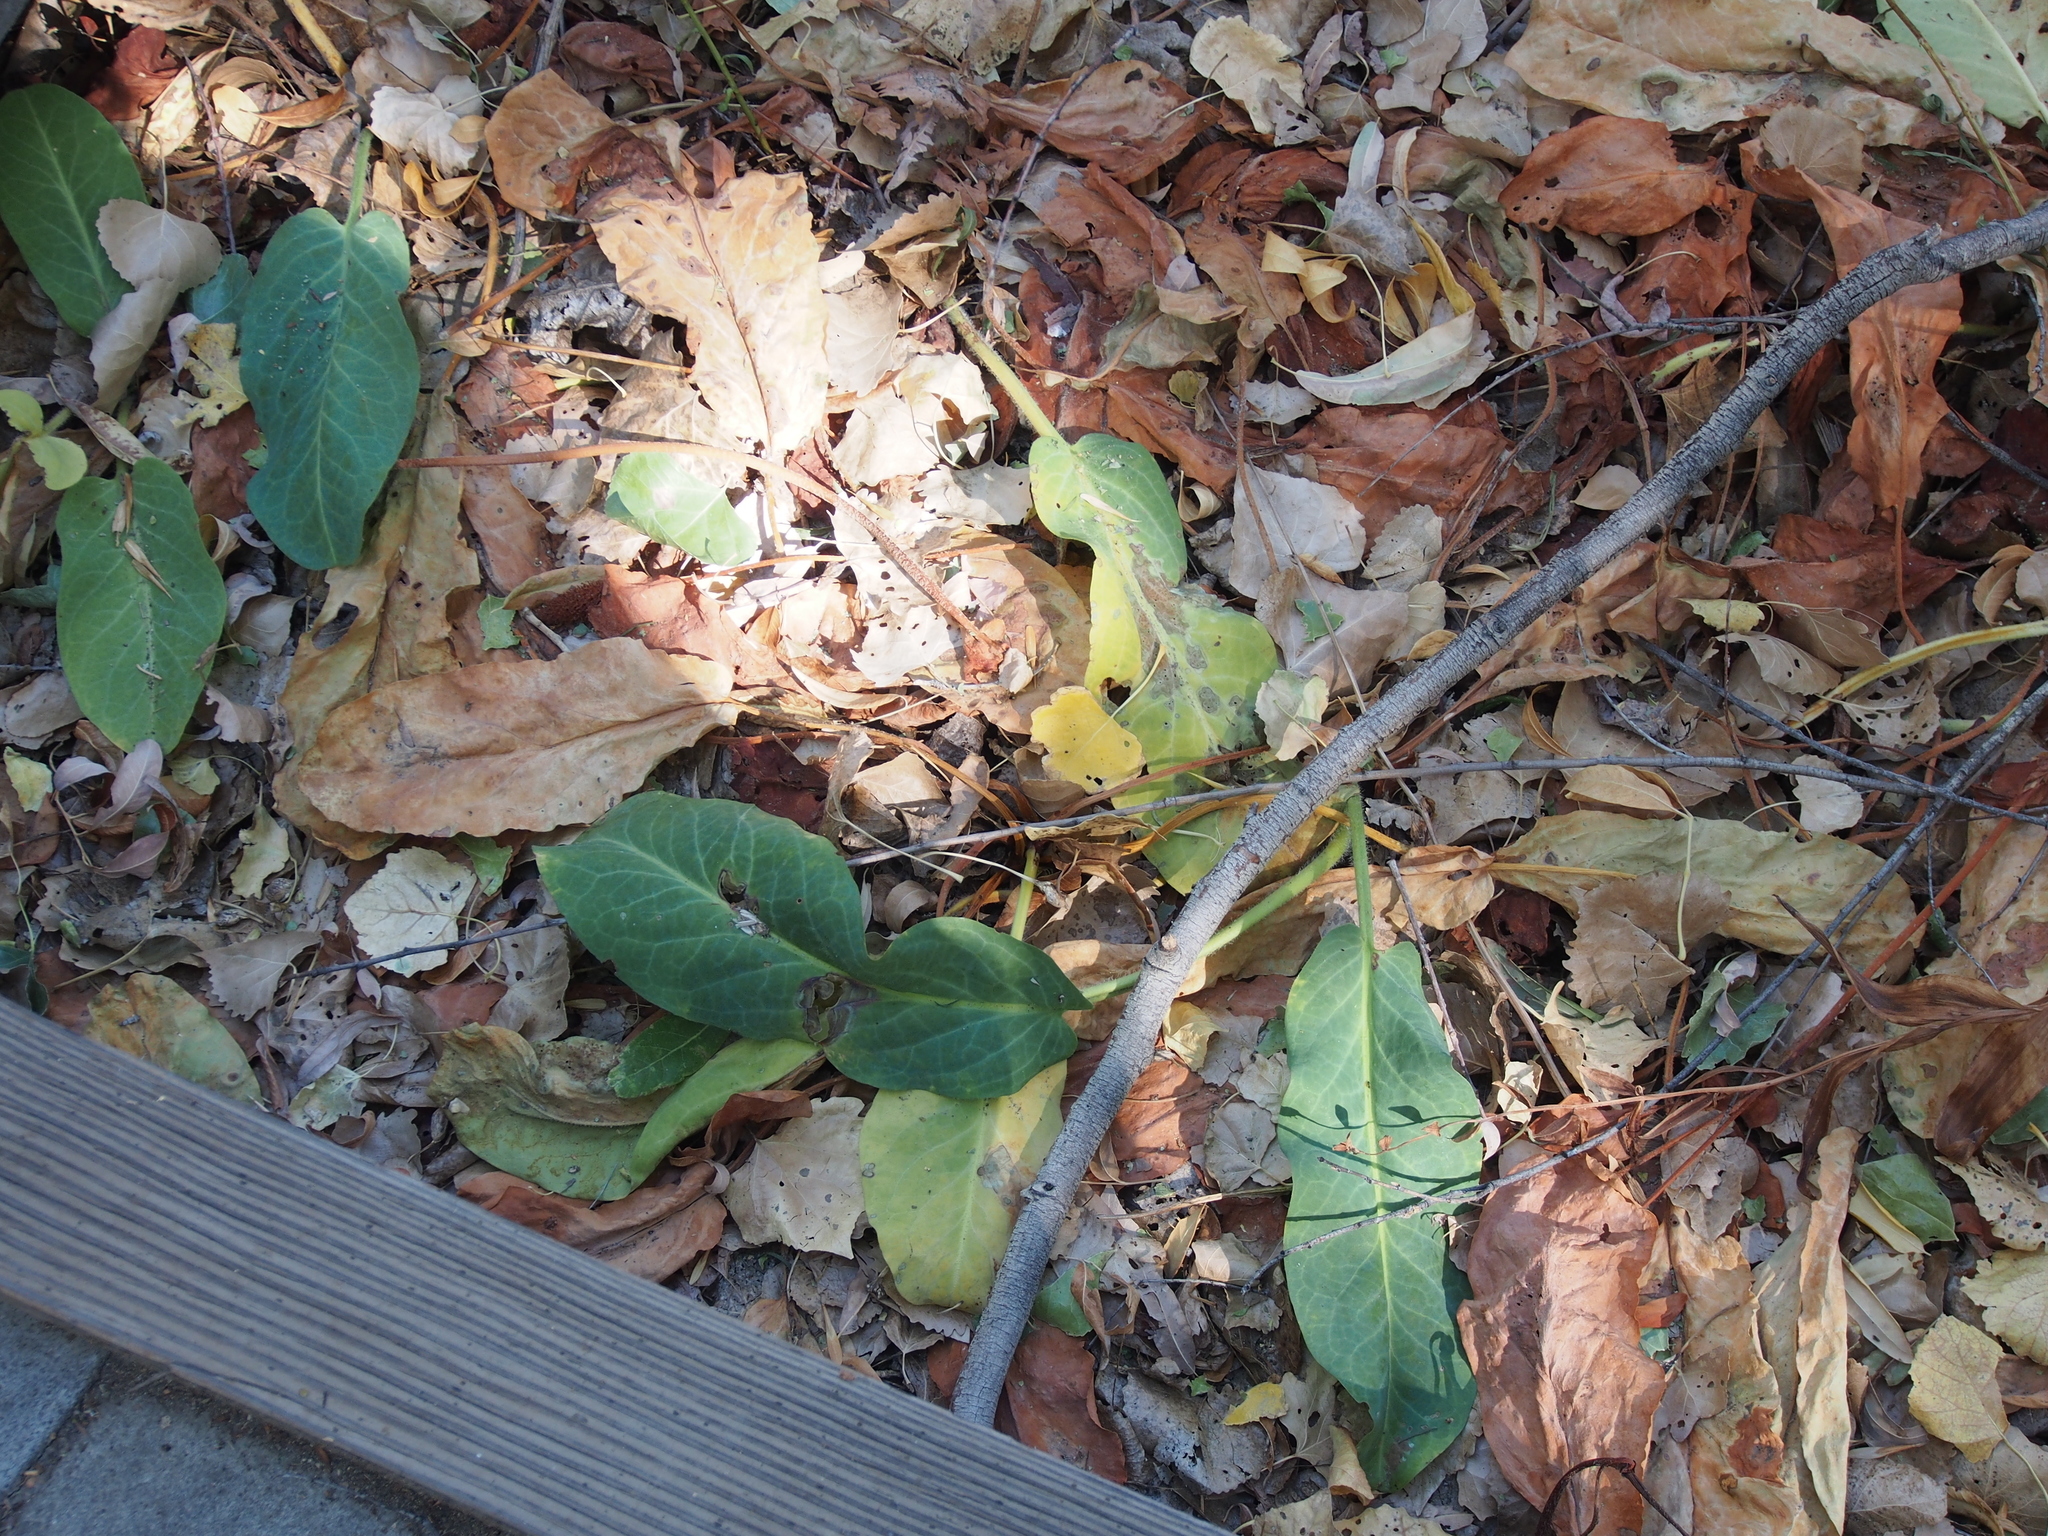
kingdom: Plantae
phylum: Tracheophyta
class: Magnoliopsida
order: Piperales
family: Saururaceae
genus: Anemopsis
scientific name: Anemopsis californica
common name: Apache-beads
